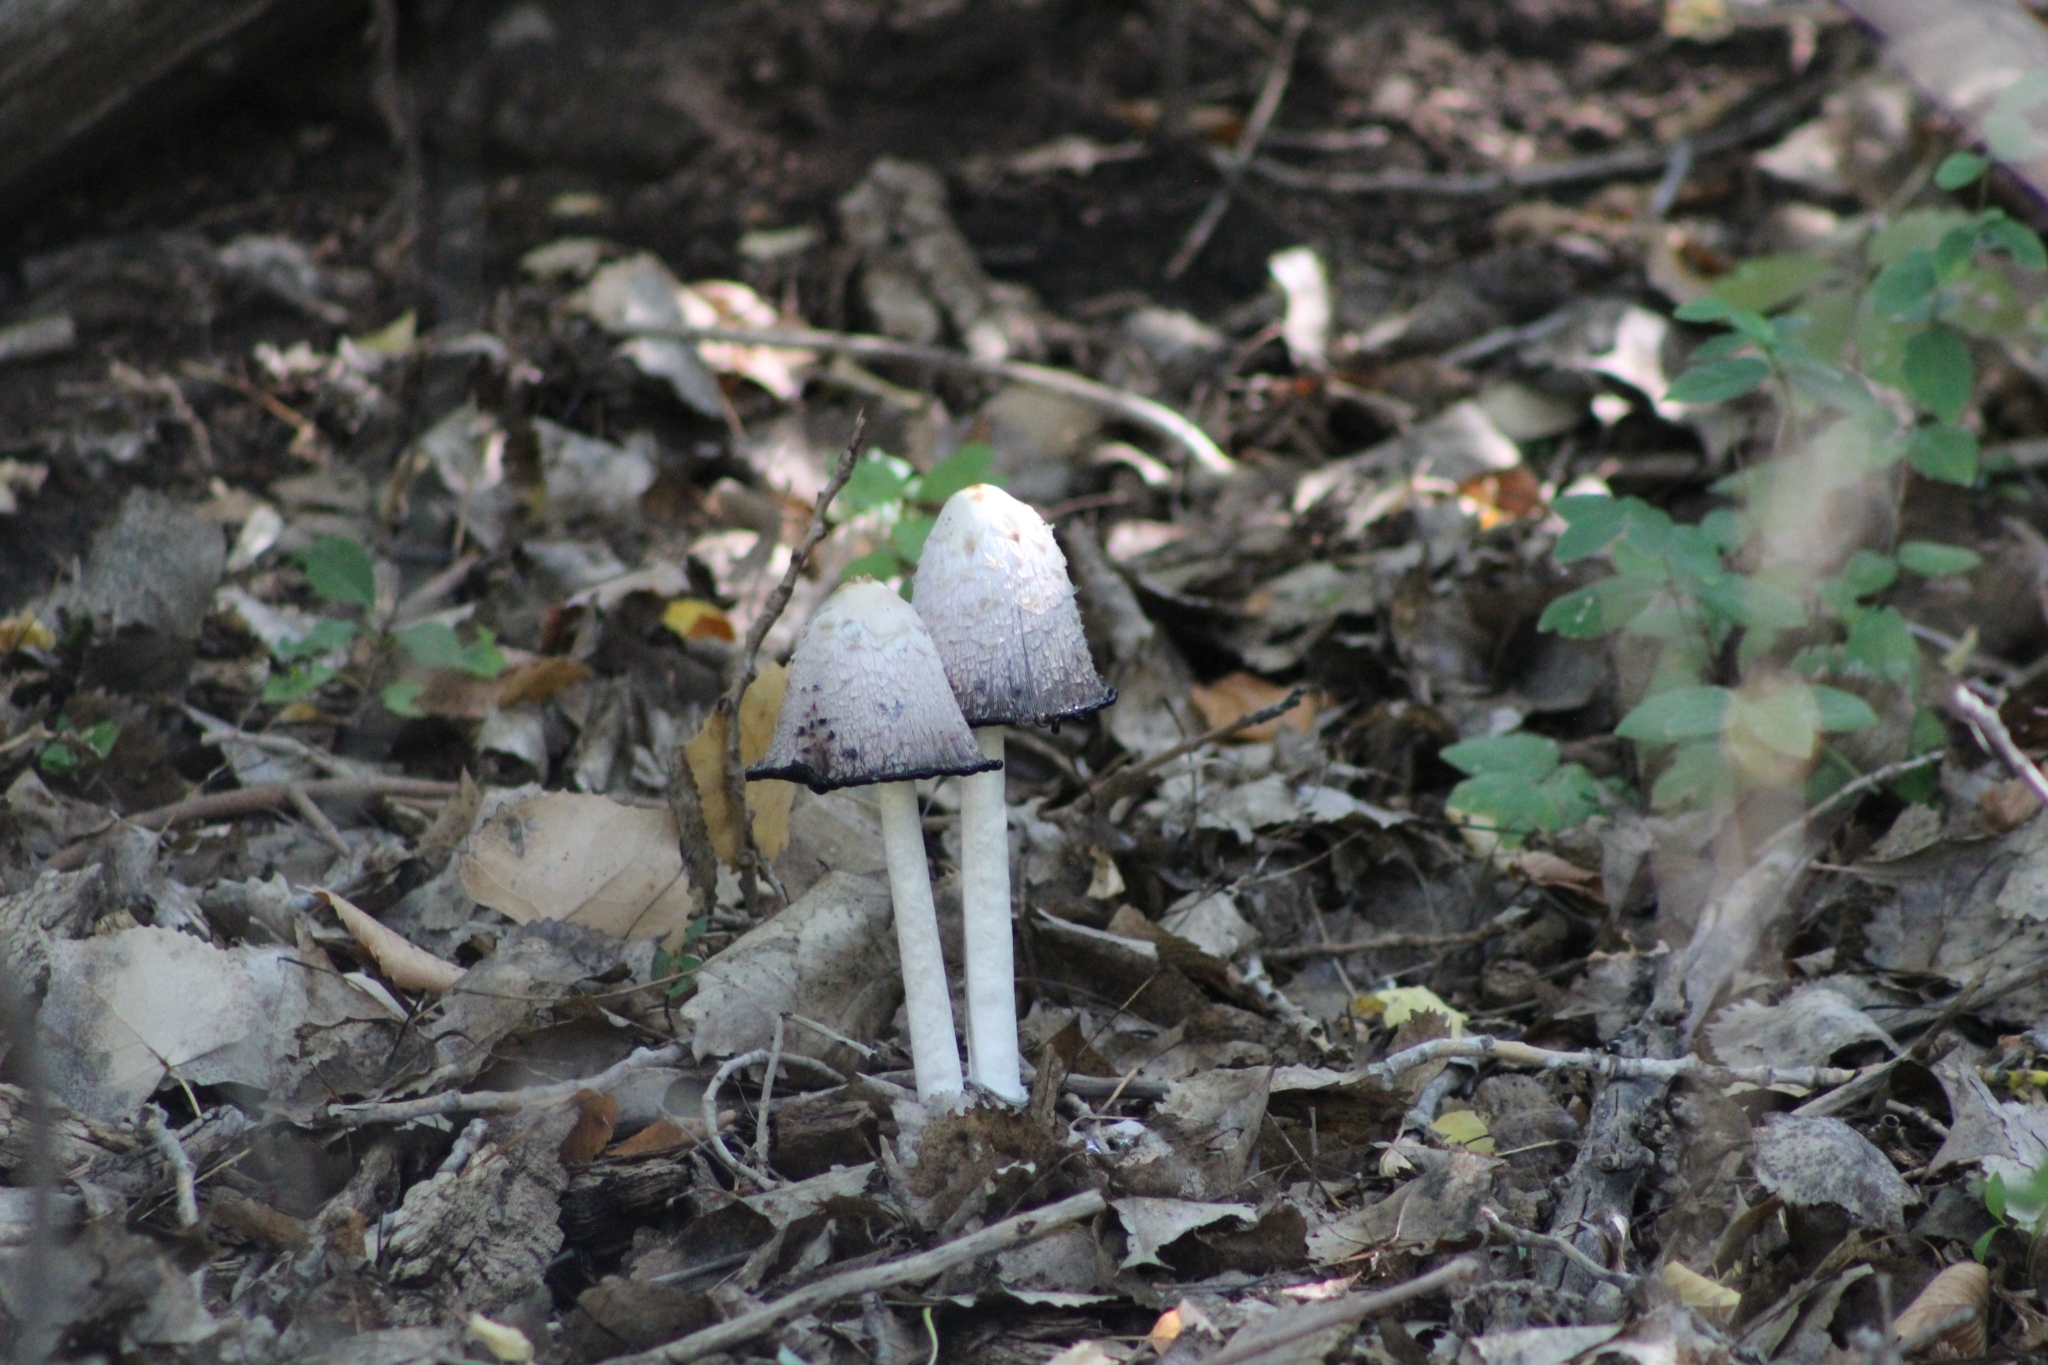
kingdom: Fungi
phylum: Basidiomycota
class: Agaricomycetes
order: Agaricales
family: Agaricaceae
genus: Coprinus
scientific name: Coprinus comatus
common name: Lawyer's wig
